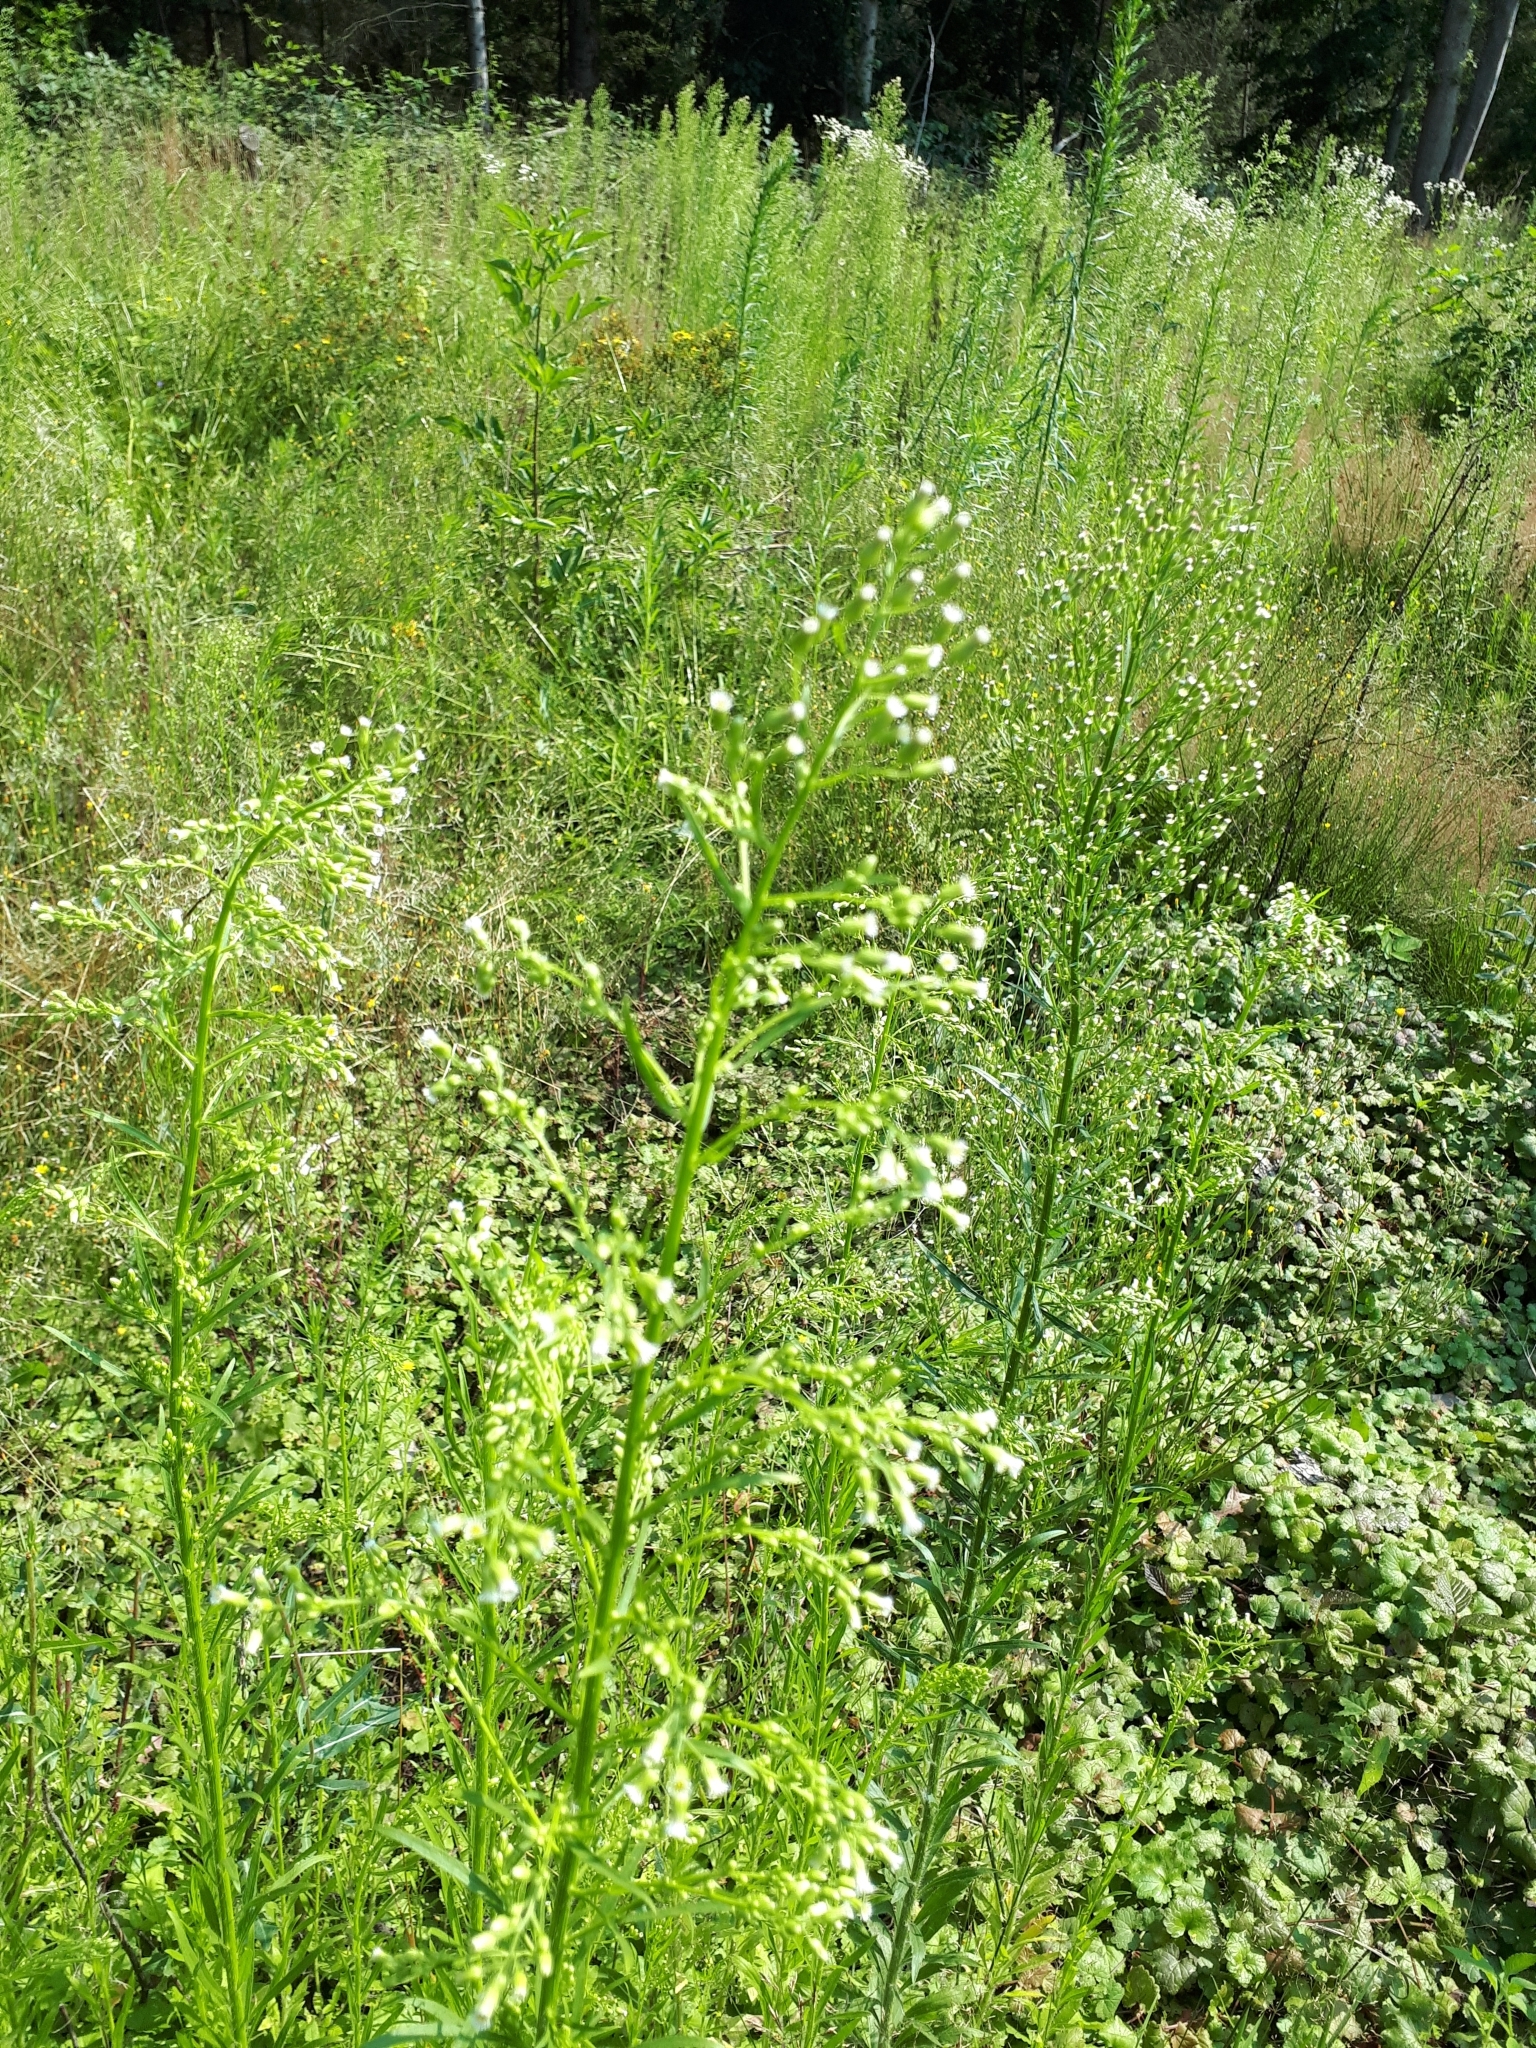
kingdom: Plantae
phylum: Tracheophyta
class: Magnoliopsida
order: Asterales
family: Asteraceae
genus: Erigeron
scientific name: Erigeron canadensis
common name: Canadian fleabane
